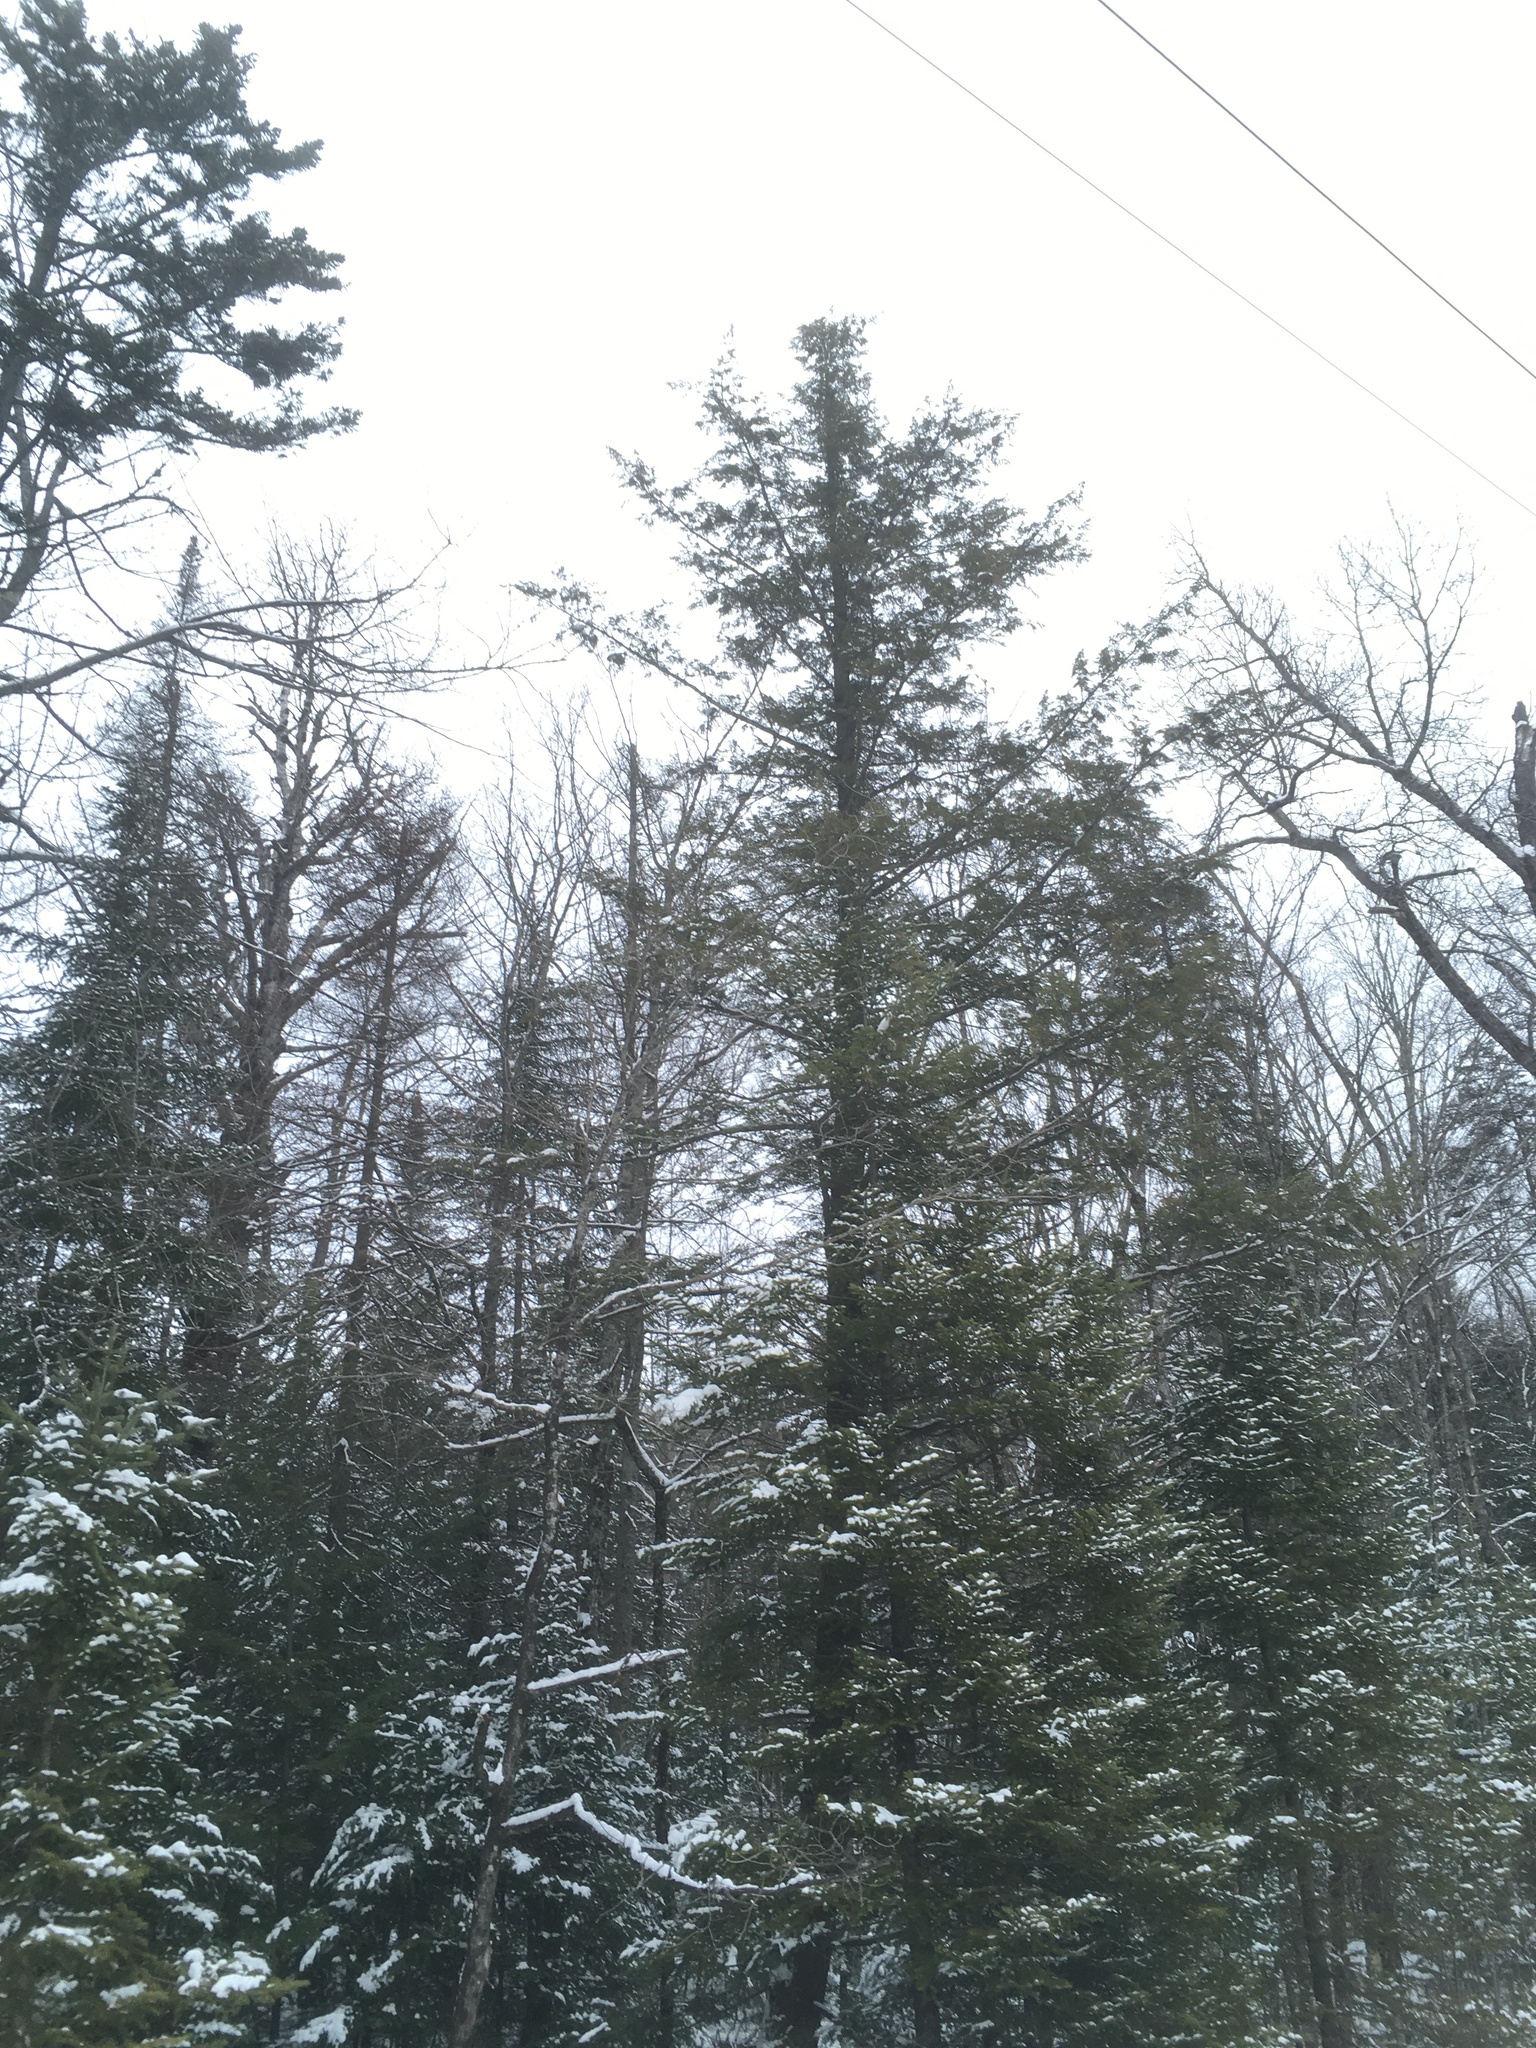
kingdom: Plantae
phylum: Tracheophyta
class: Pinopsida
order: Pinales
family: Pinaceae
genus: Tsuga
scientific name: Tsuga canadensis
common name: Eastern hemlock
